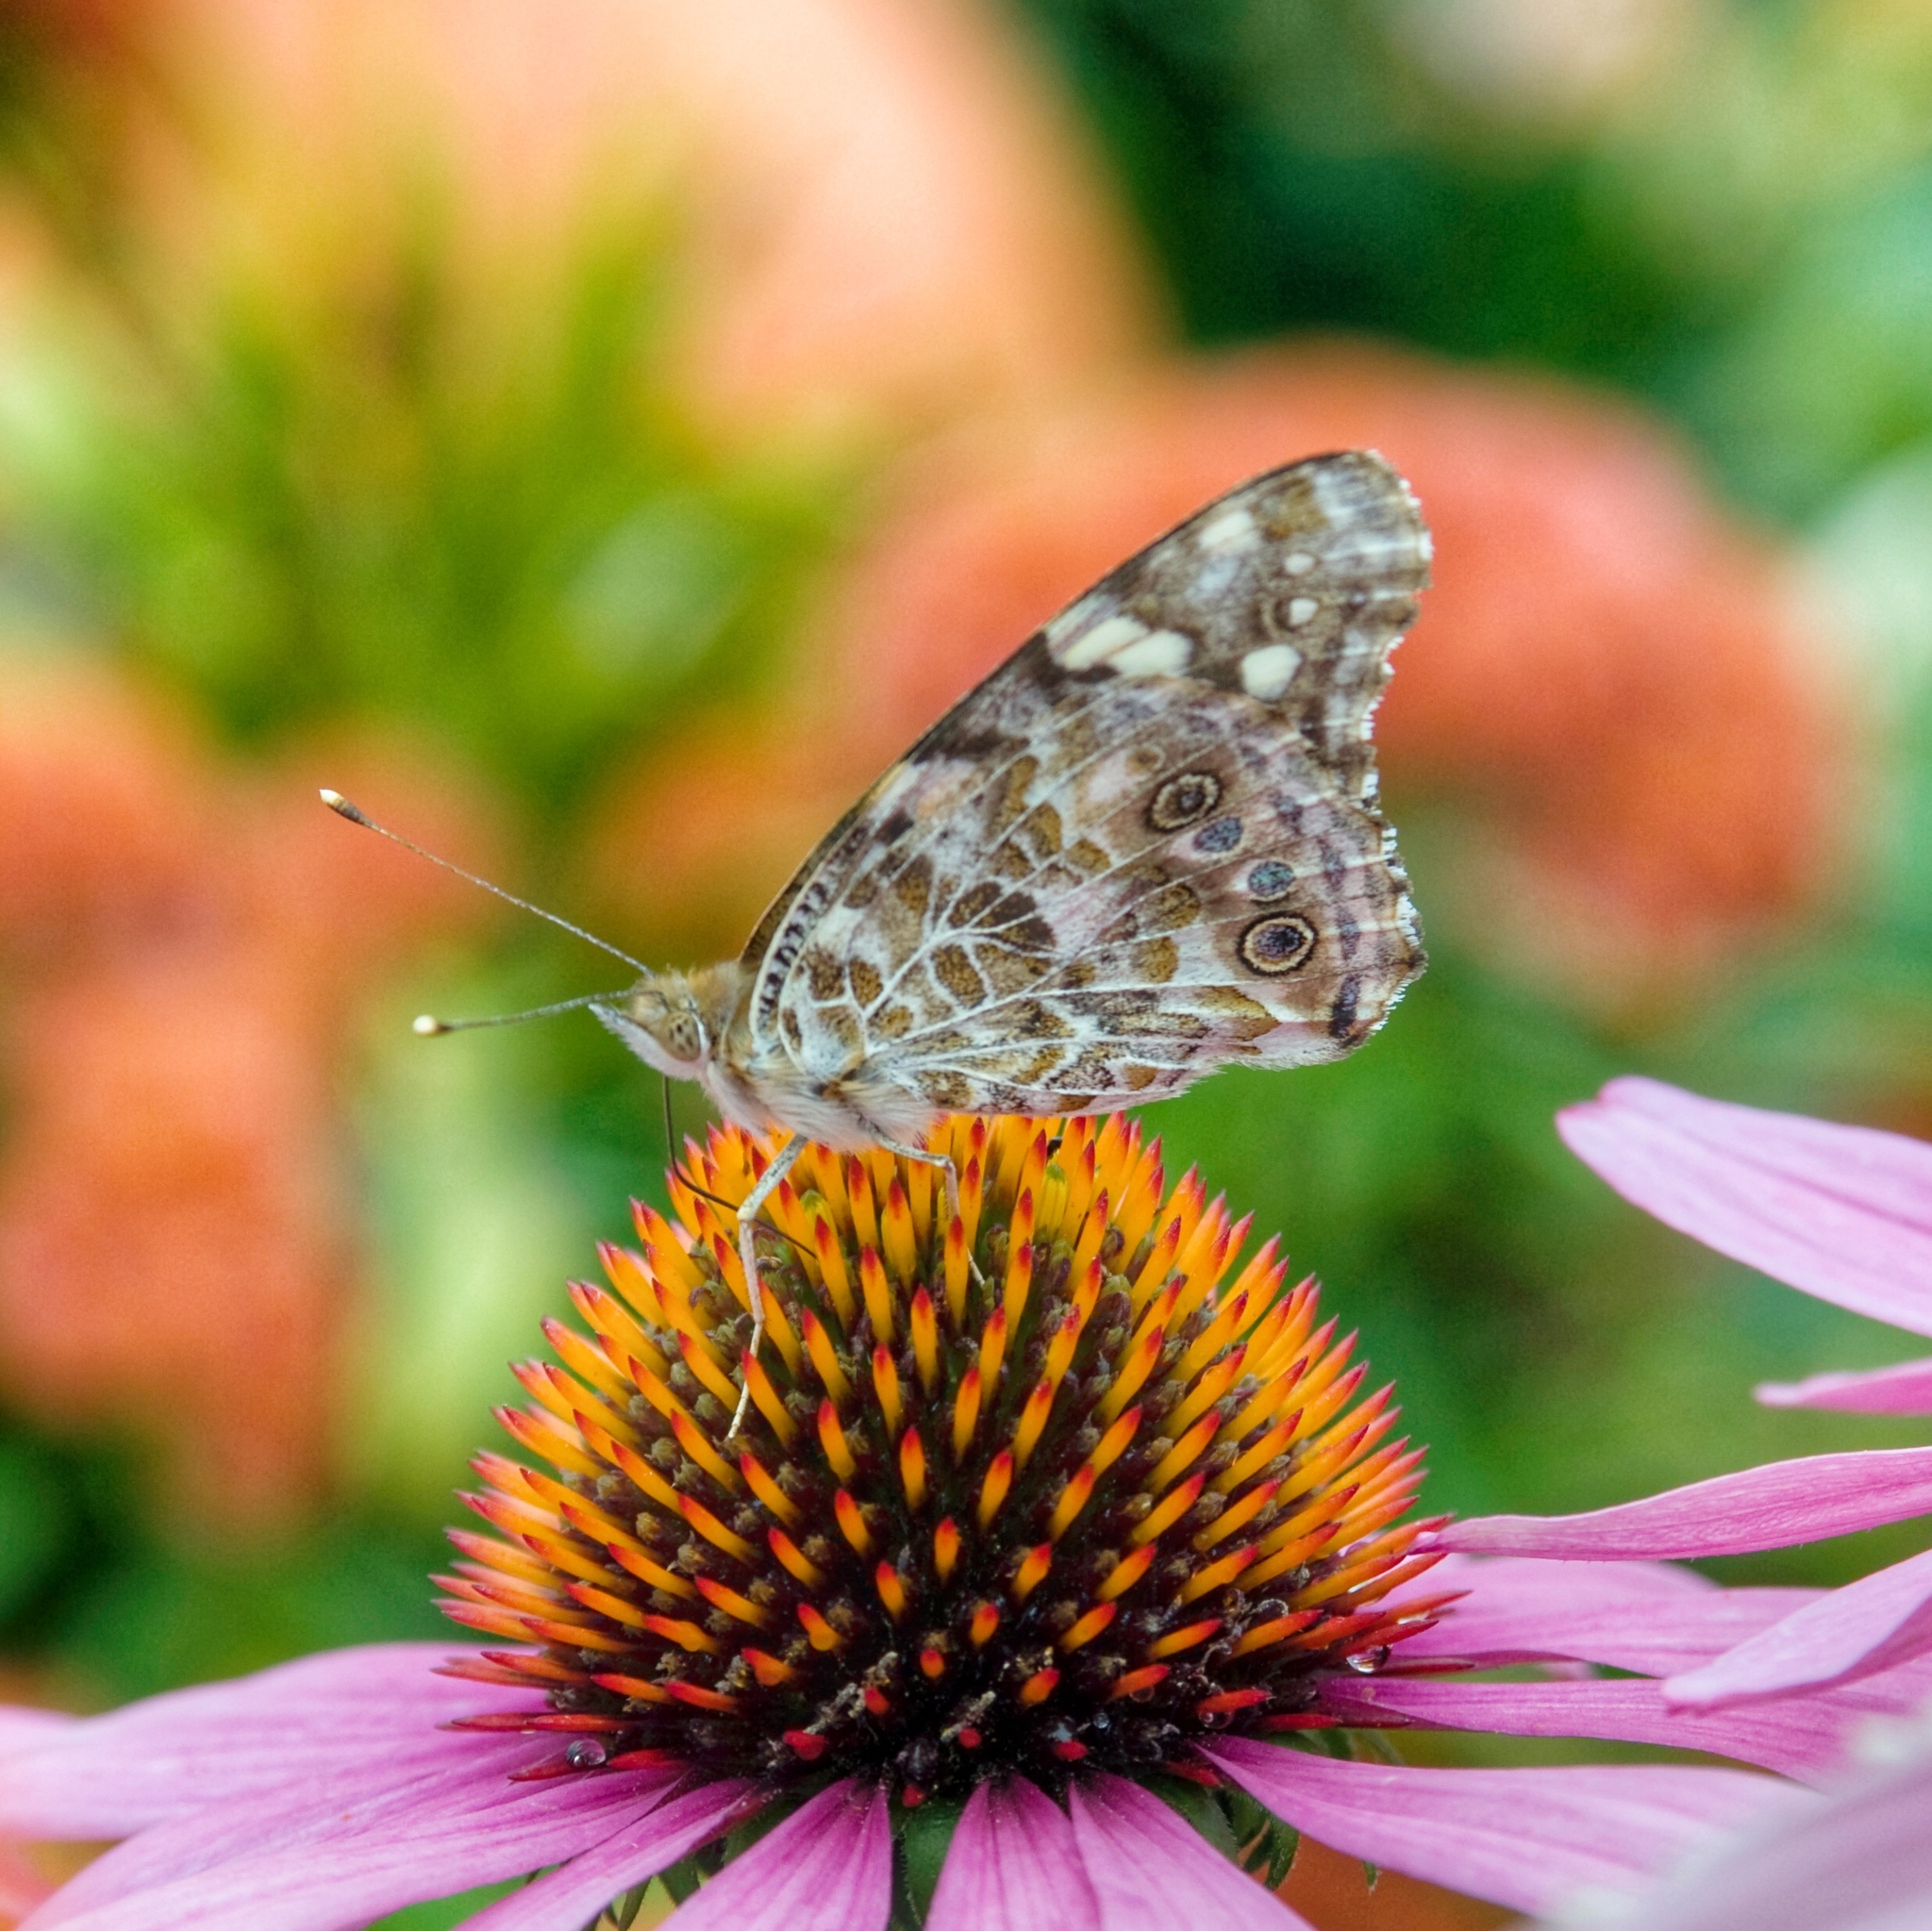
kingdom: Animalia
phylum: Arthropoda
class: Insecta
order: Lepidoptera
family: Nymphalidae
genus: Vanessa
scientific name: Vanessa cardui
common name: Painted lady
